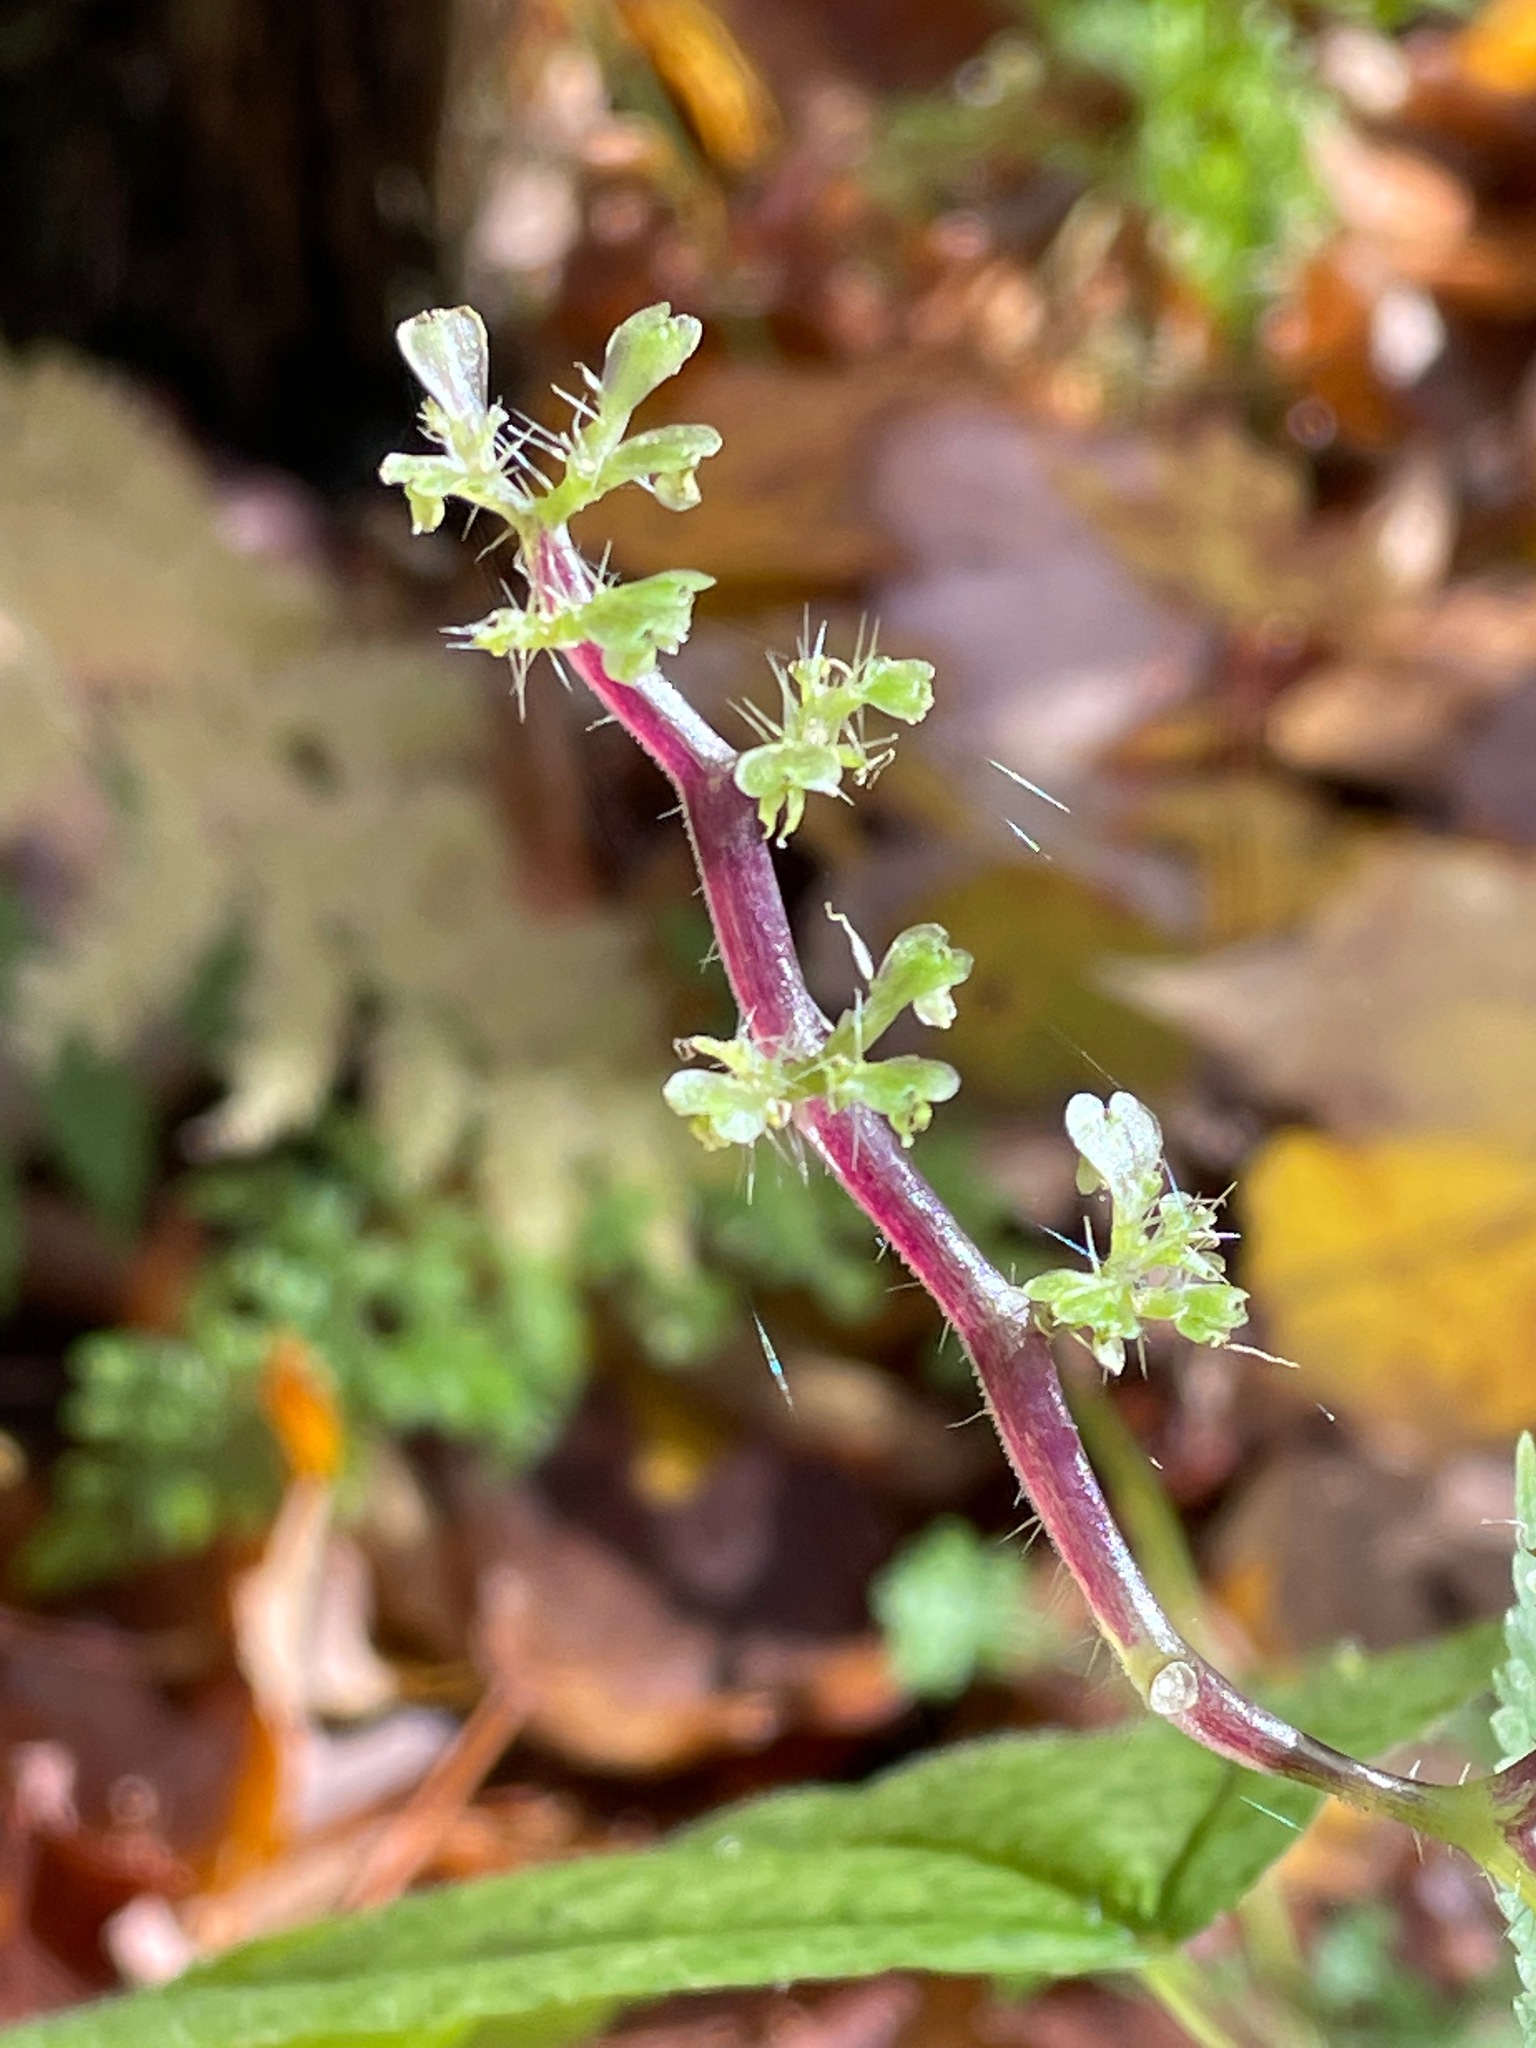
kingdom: Plantae
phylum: Tracheophyta
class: Magnoliopsida
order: Rosales
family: Urticaceae
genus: Laportea
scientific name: Laportea canadensis
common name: Canada nettle
